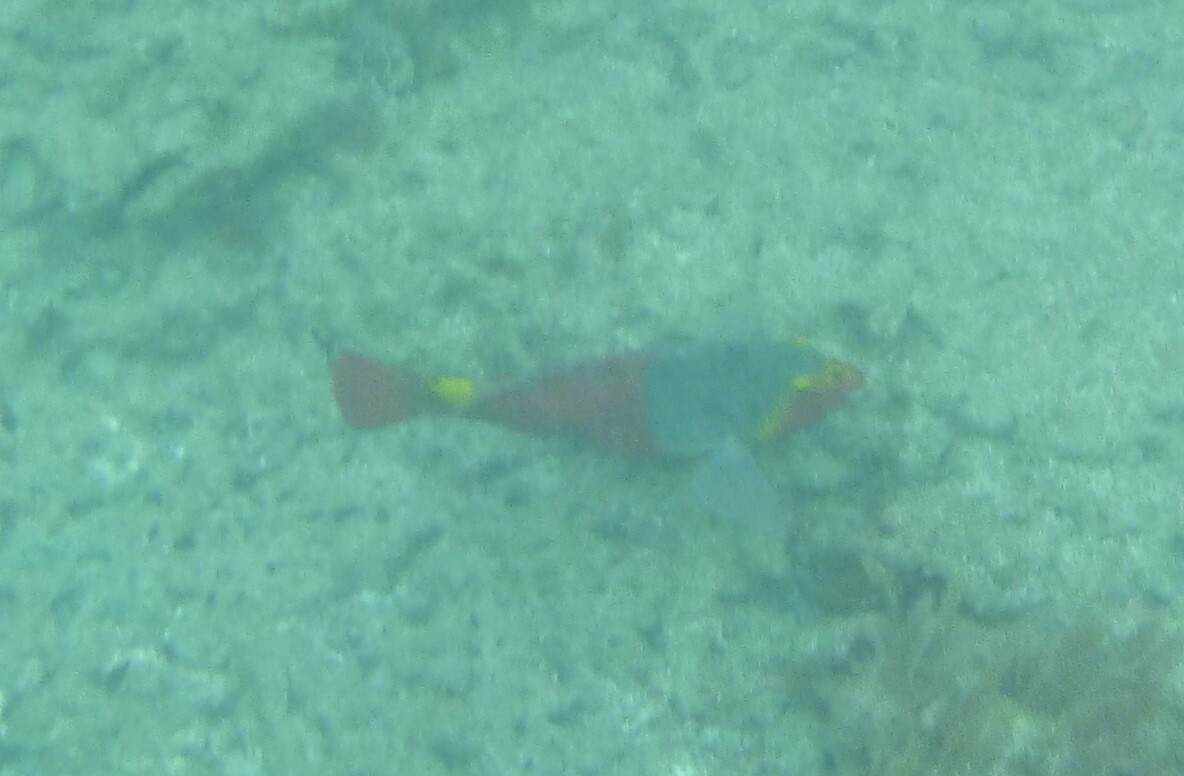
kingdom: Animalia
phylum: Chordata
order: Perciformes
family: Scaridae
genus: Sparisoma
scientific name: Sparisoma cretense
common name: Parrotfish
